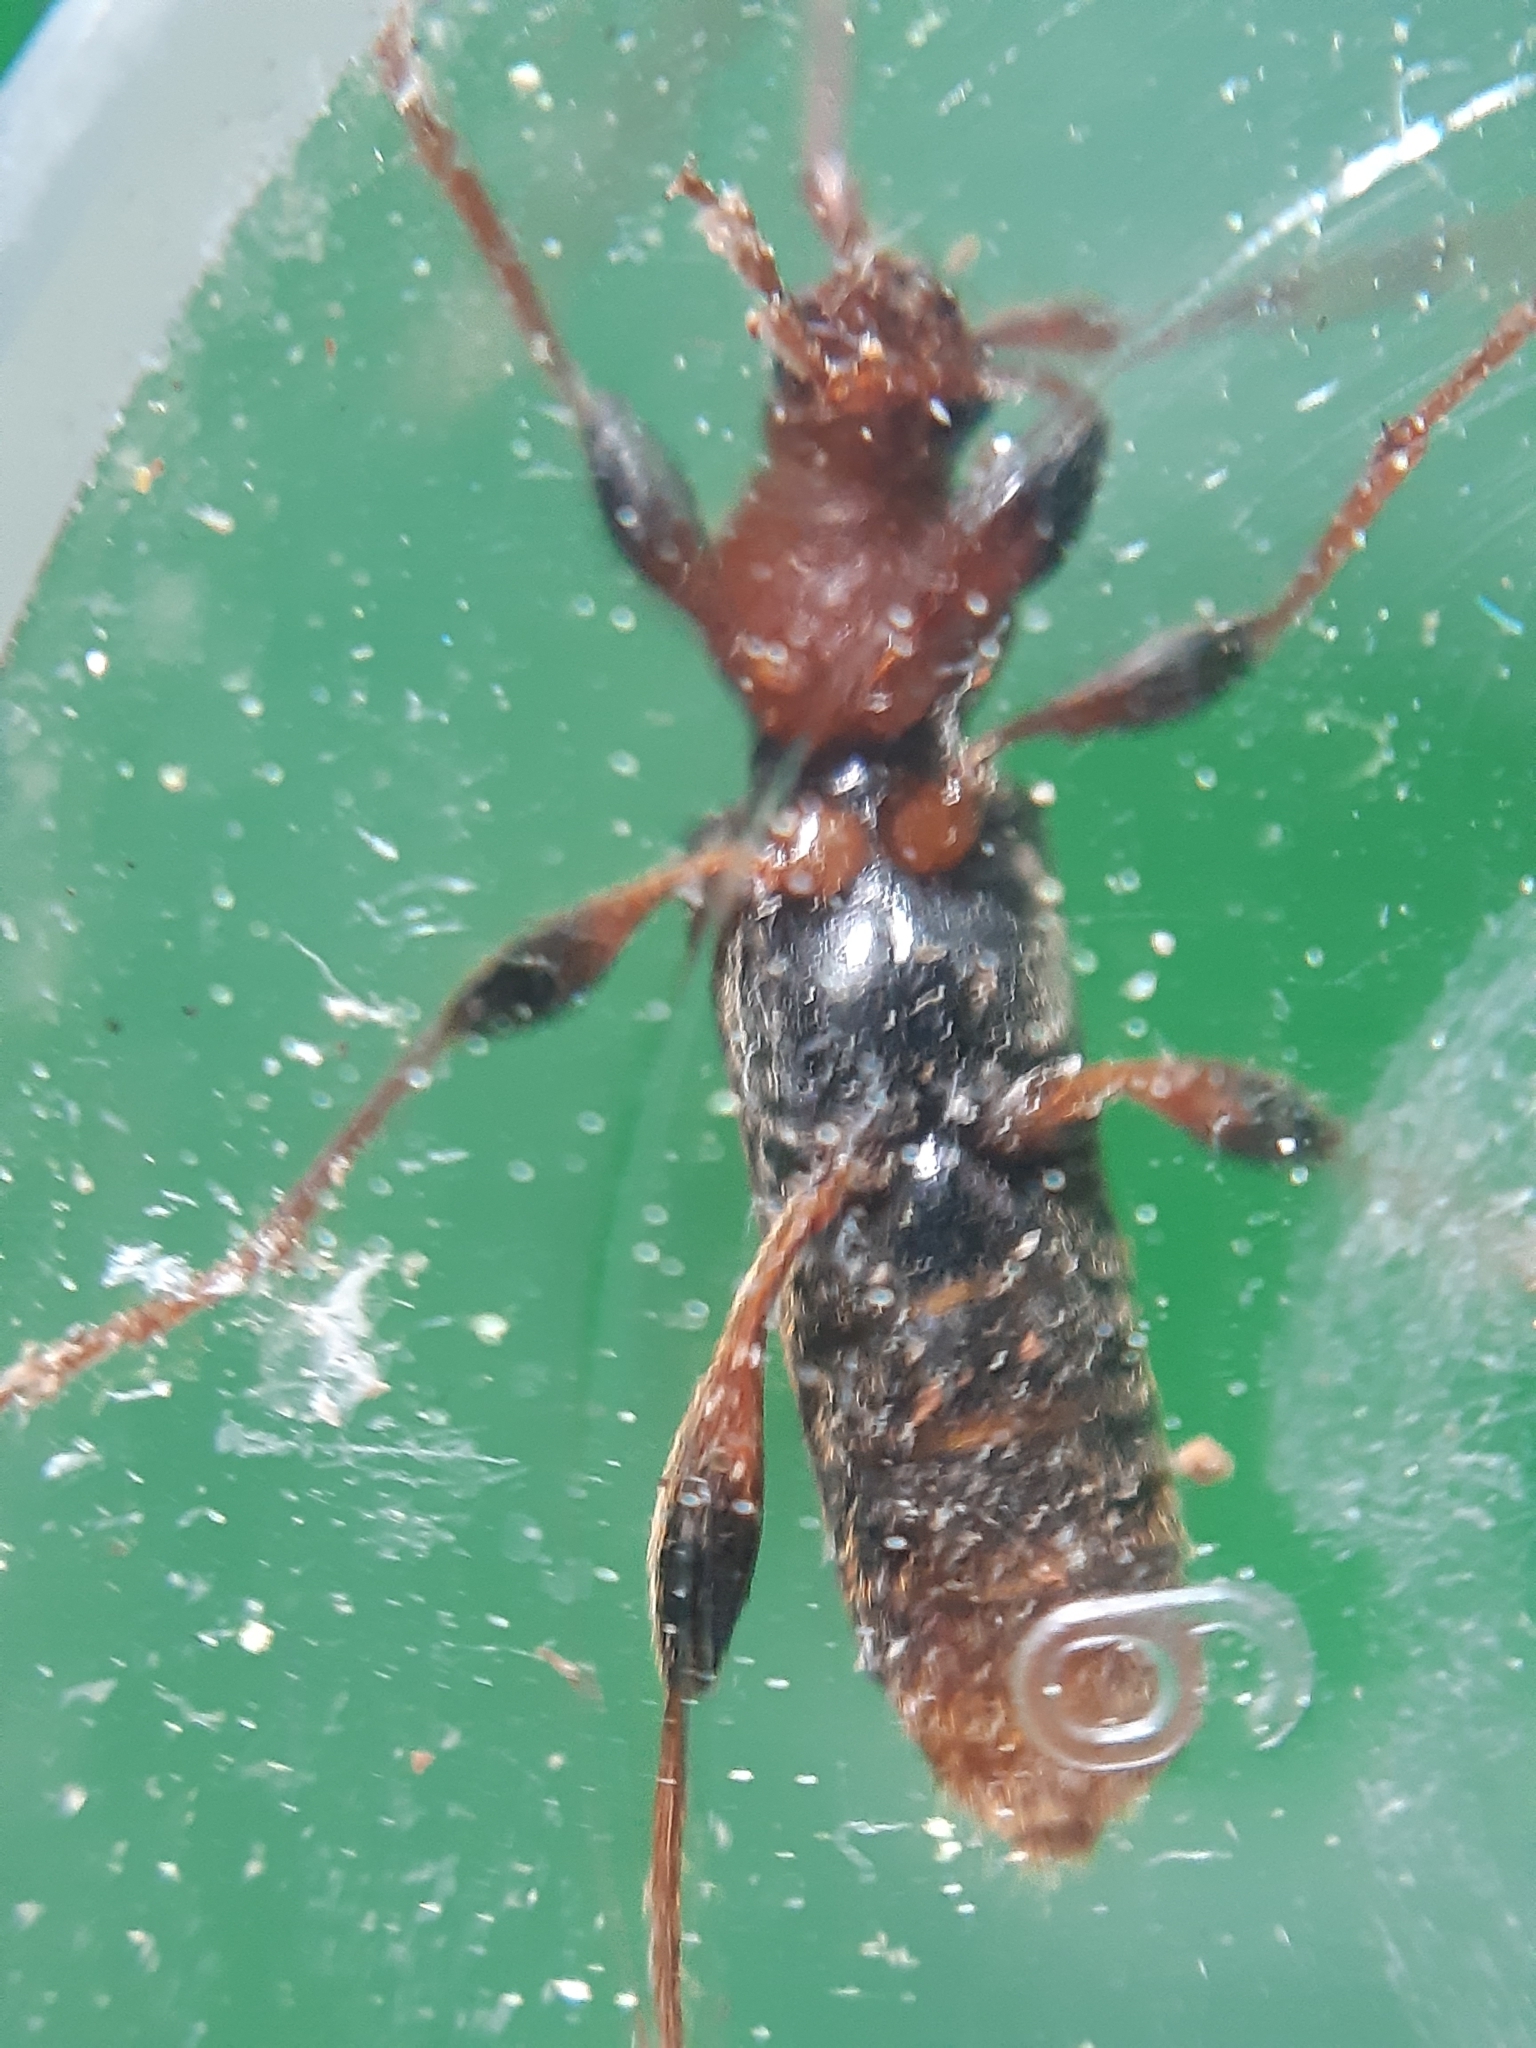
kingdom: Animalia
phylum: Arthropoda
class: Insecta
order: Coleoptera
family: Cerambycidae
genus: Phymatodes
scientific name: Phymatodes testaceus
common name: Long-horned beetle
